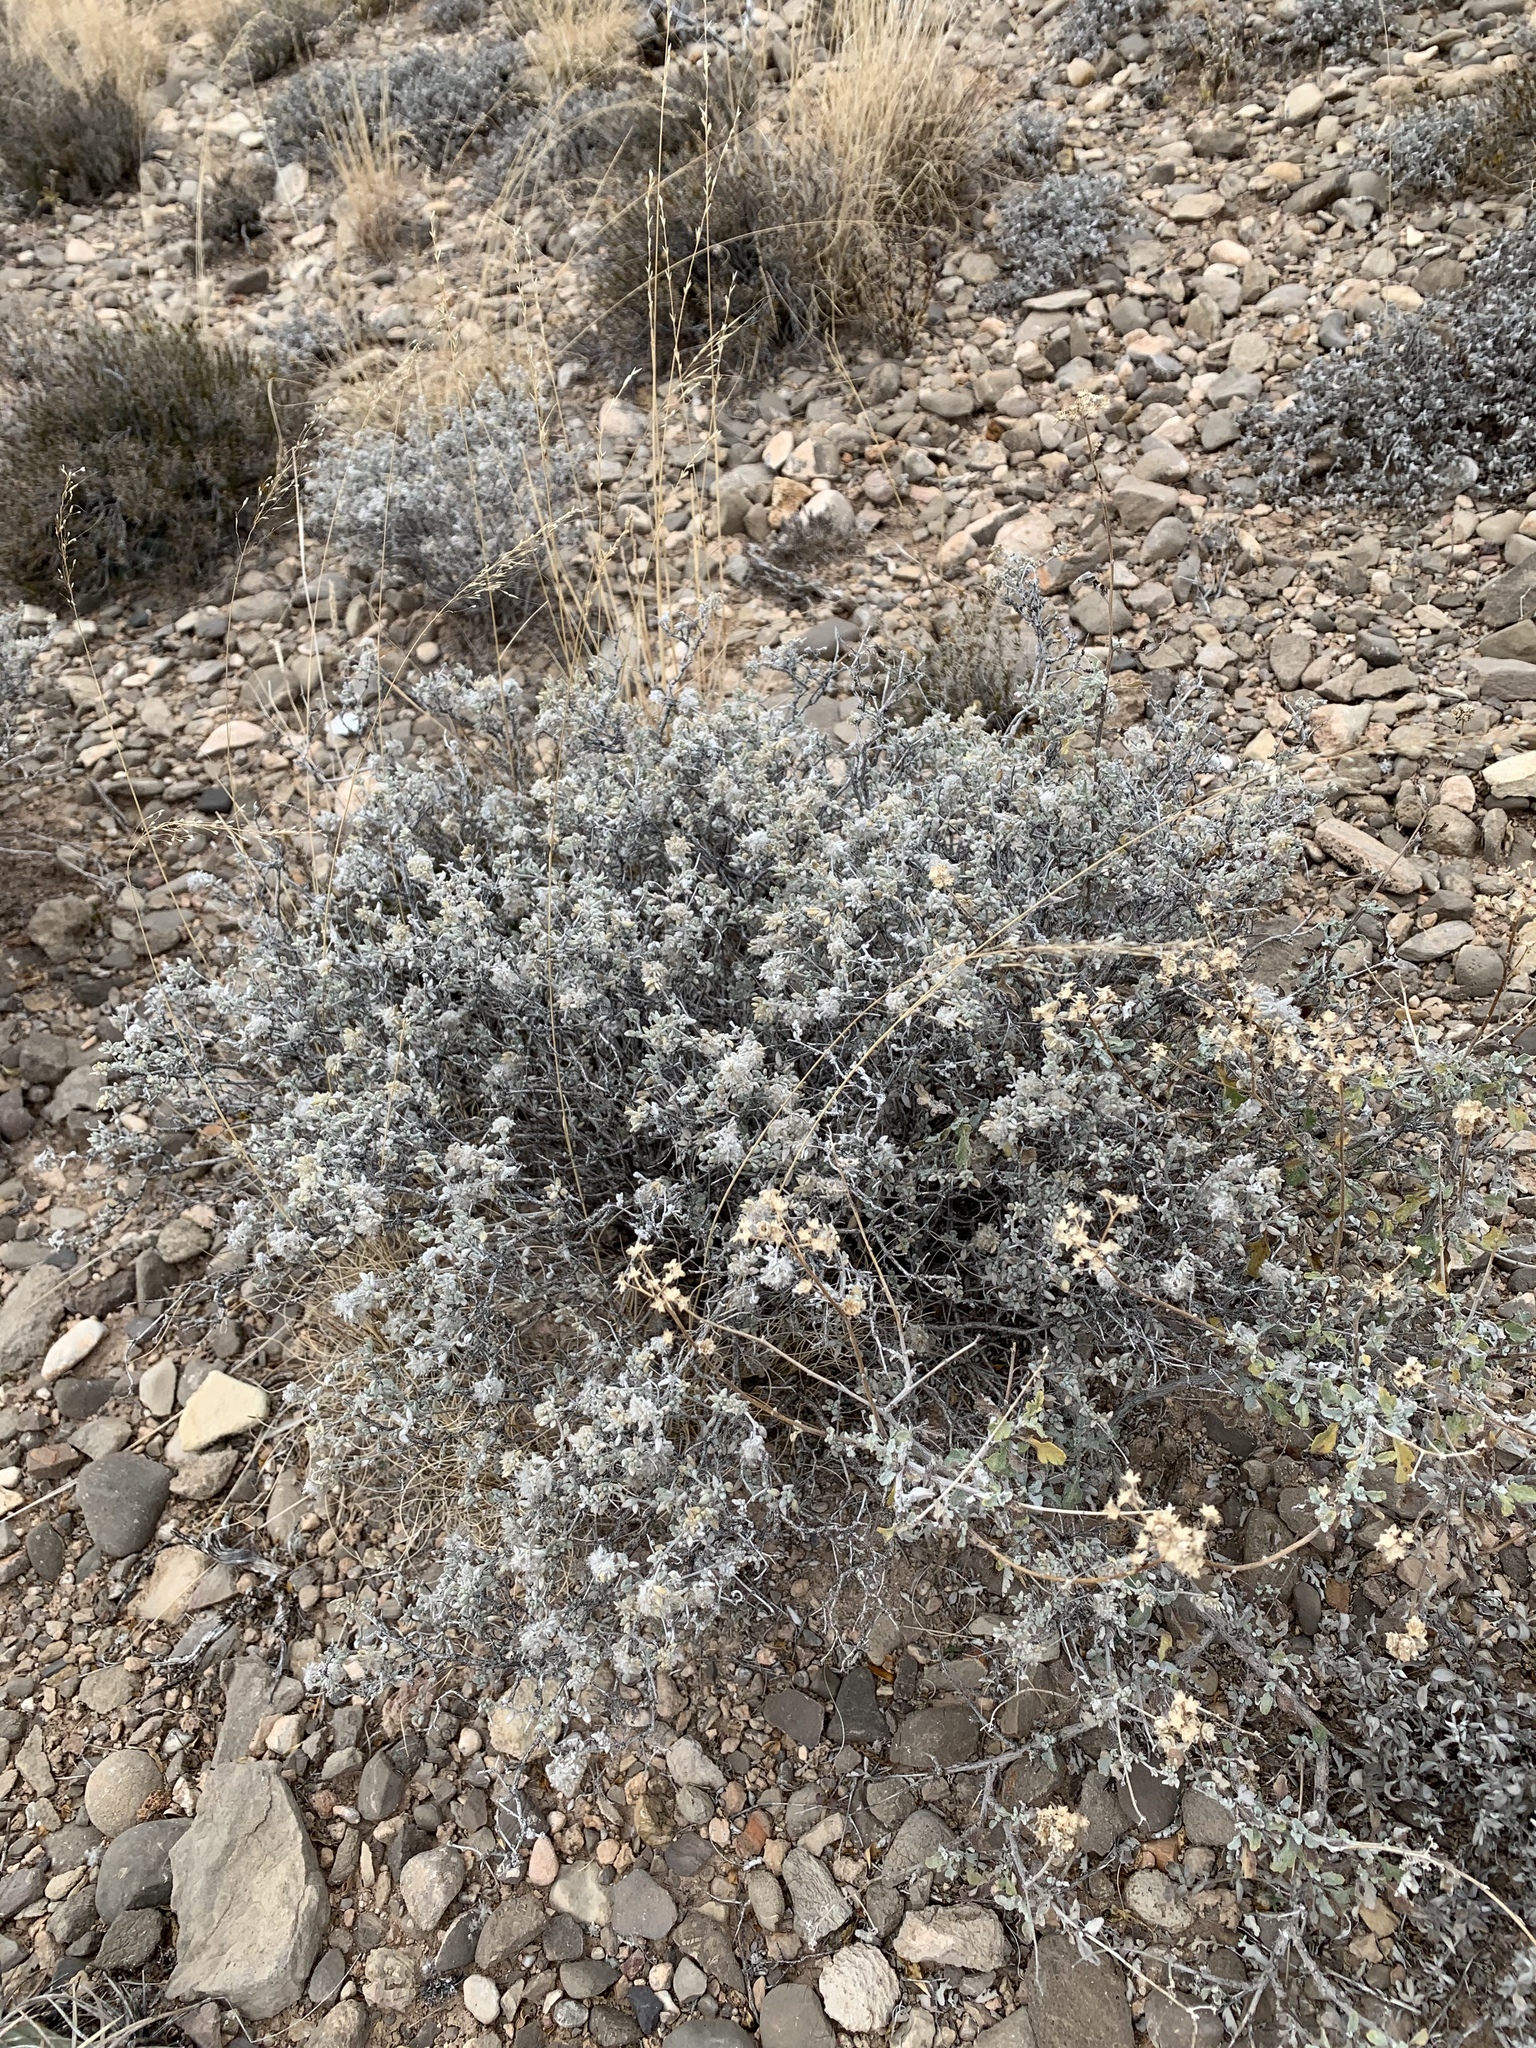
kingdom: Plantae
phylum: Tracheophyta
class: Magnoliopsida
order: Boraginales
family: Ehretiaceae
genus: Tiquilia
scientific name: Tiquilia greggii
